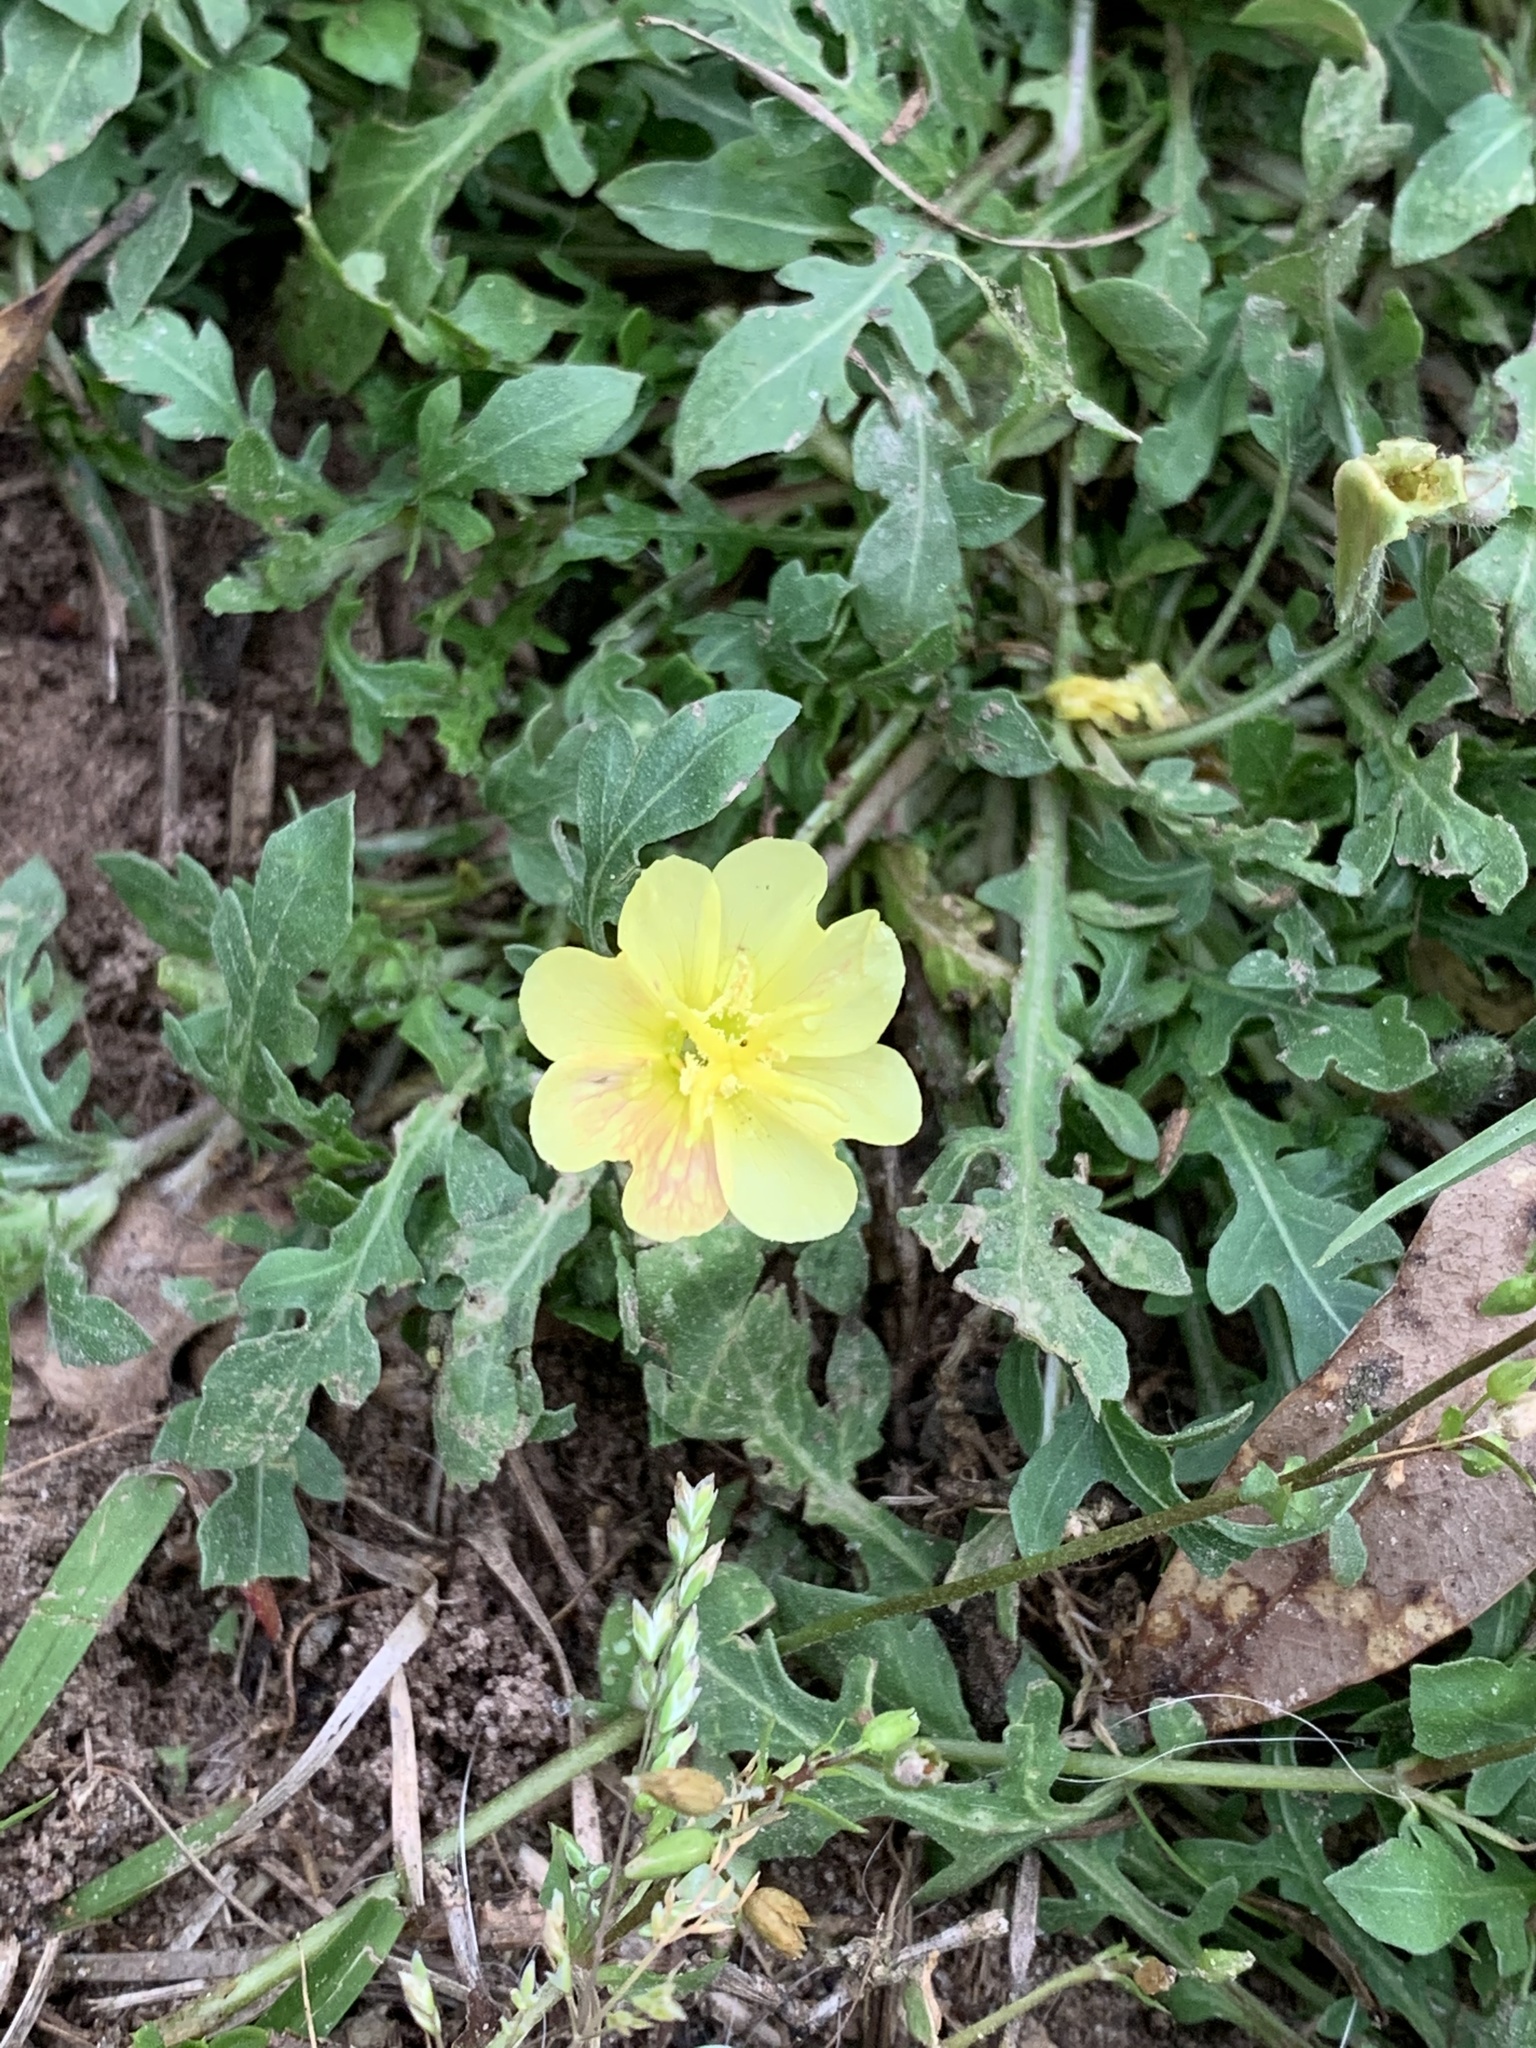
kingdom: Plantae
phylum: Tracheophyta
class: Magnoliopsida
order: Myrtales
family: Onagraceae
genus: Oenothera
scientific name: Oenothera laciniata
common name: Cut-leaved evening-primrose
